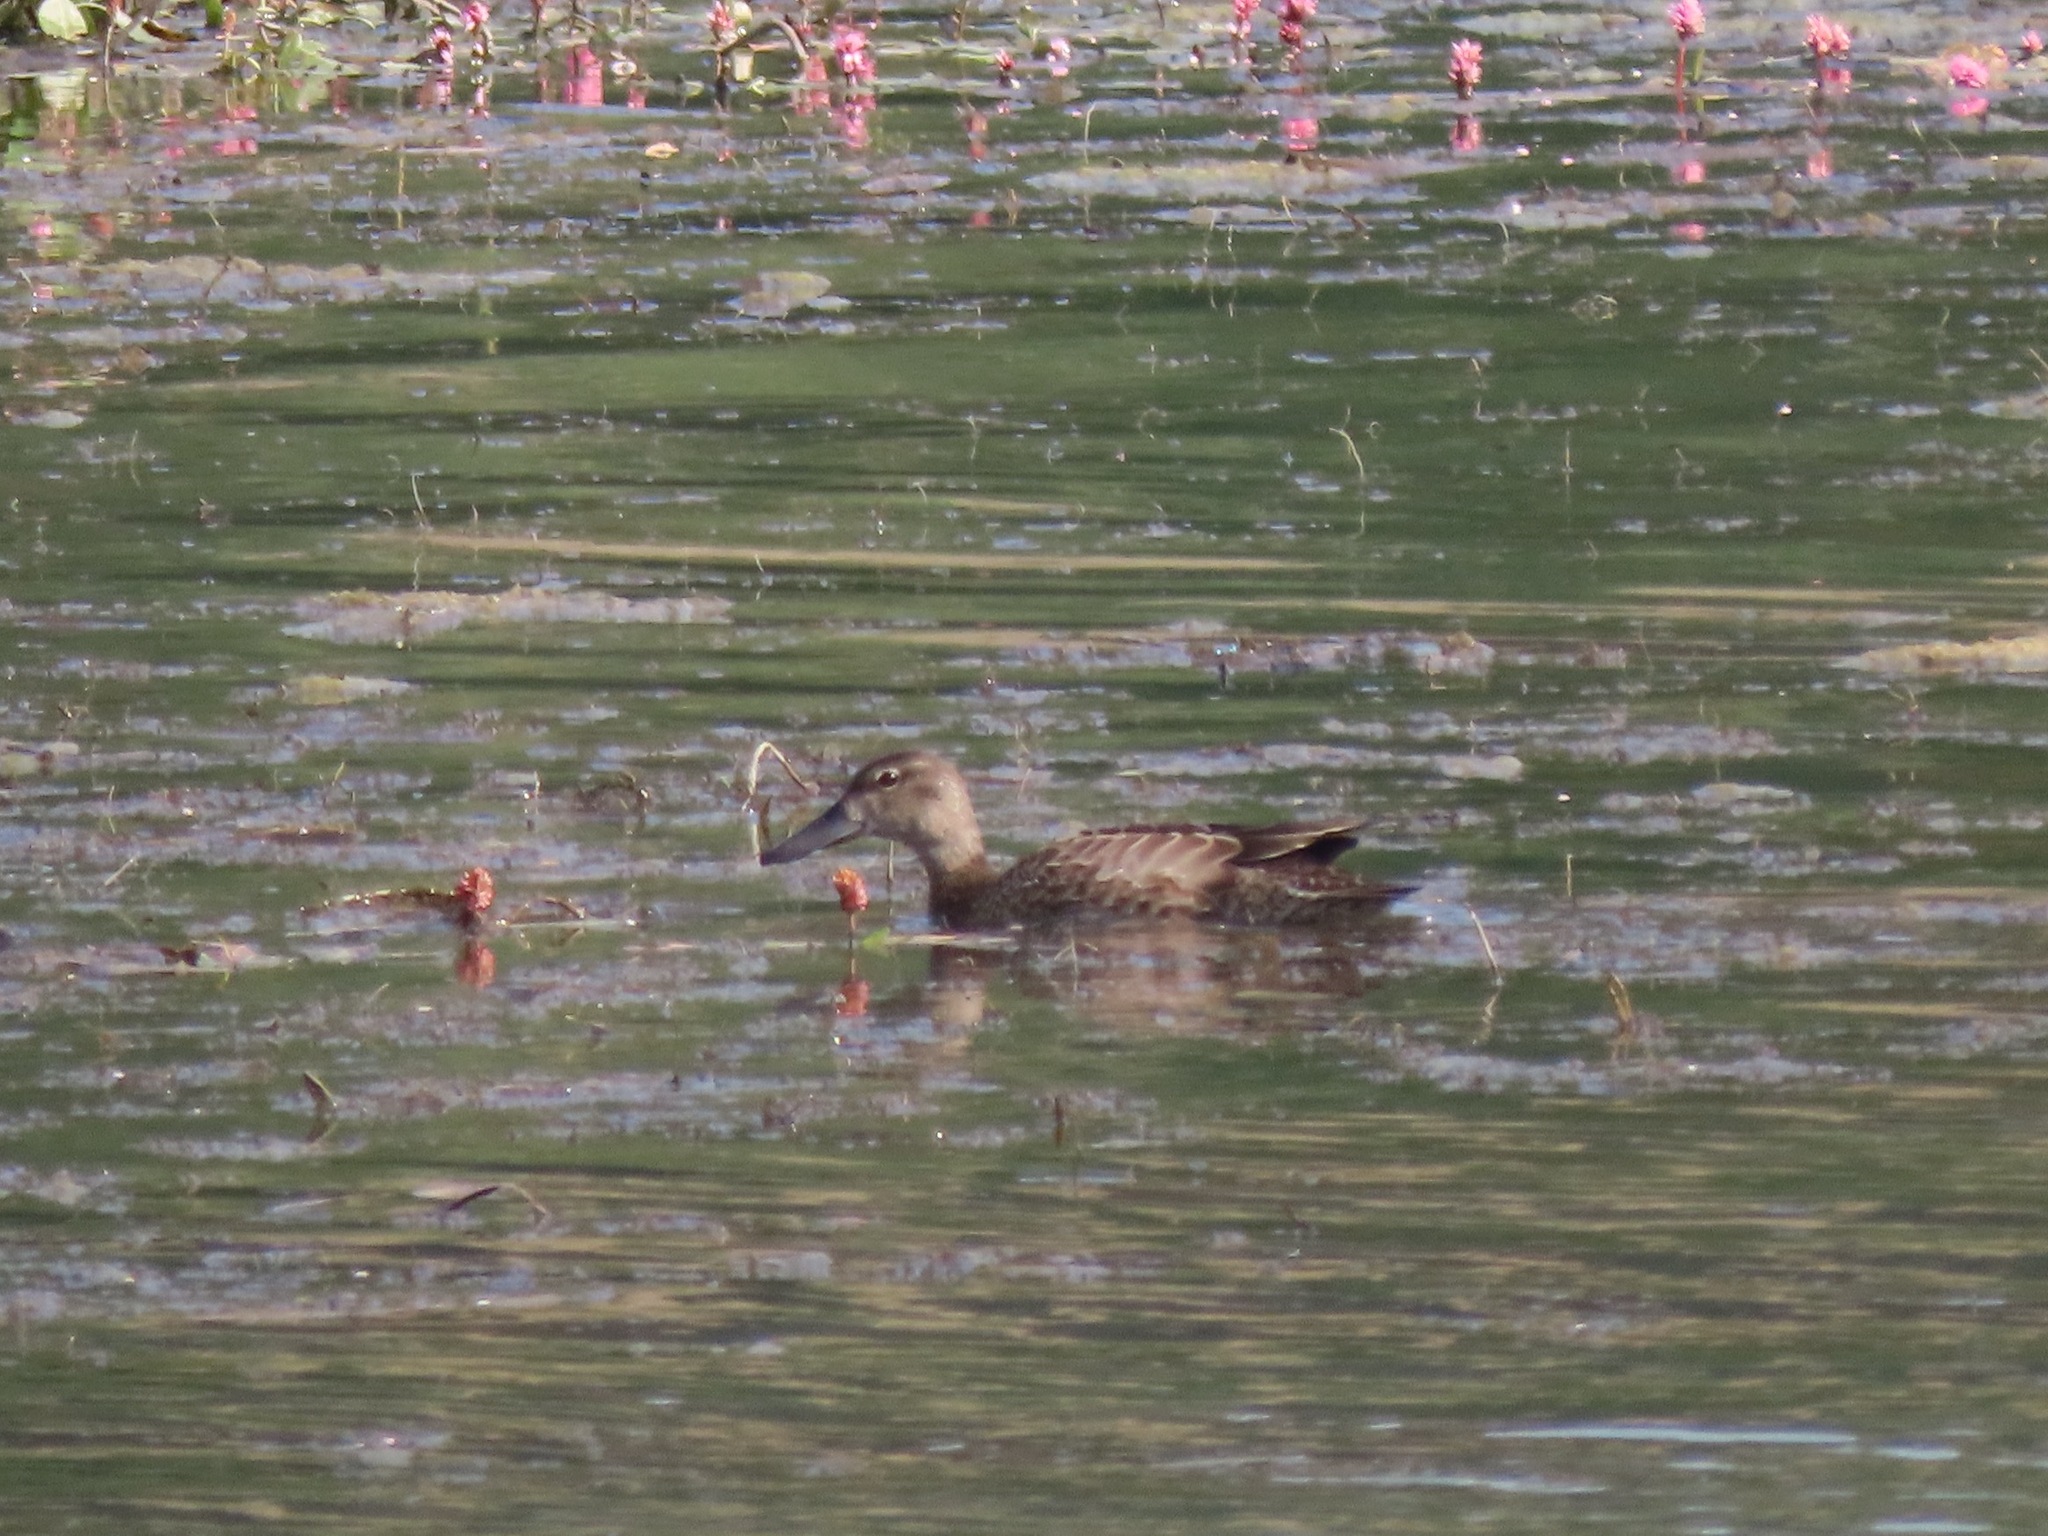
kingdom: Animalia
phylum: Chordata
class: Aves
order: Anseriformes
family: Anatidae
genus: Spatula
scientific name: Spatula discors
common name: Blue-winged teal
